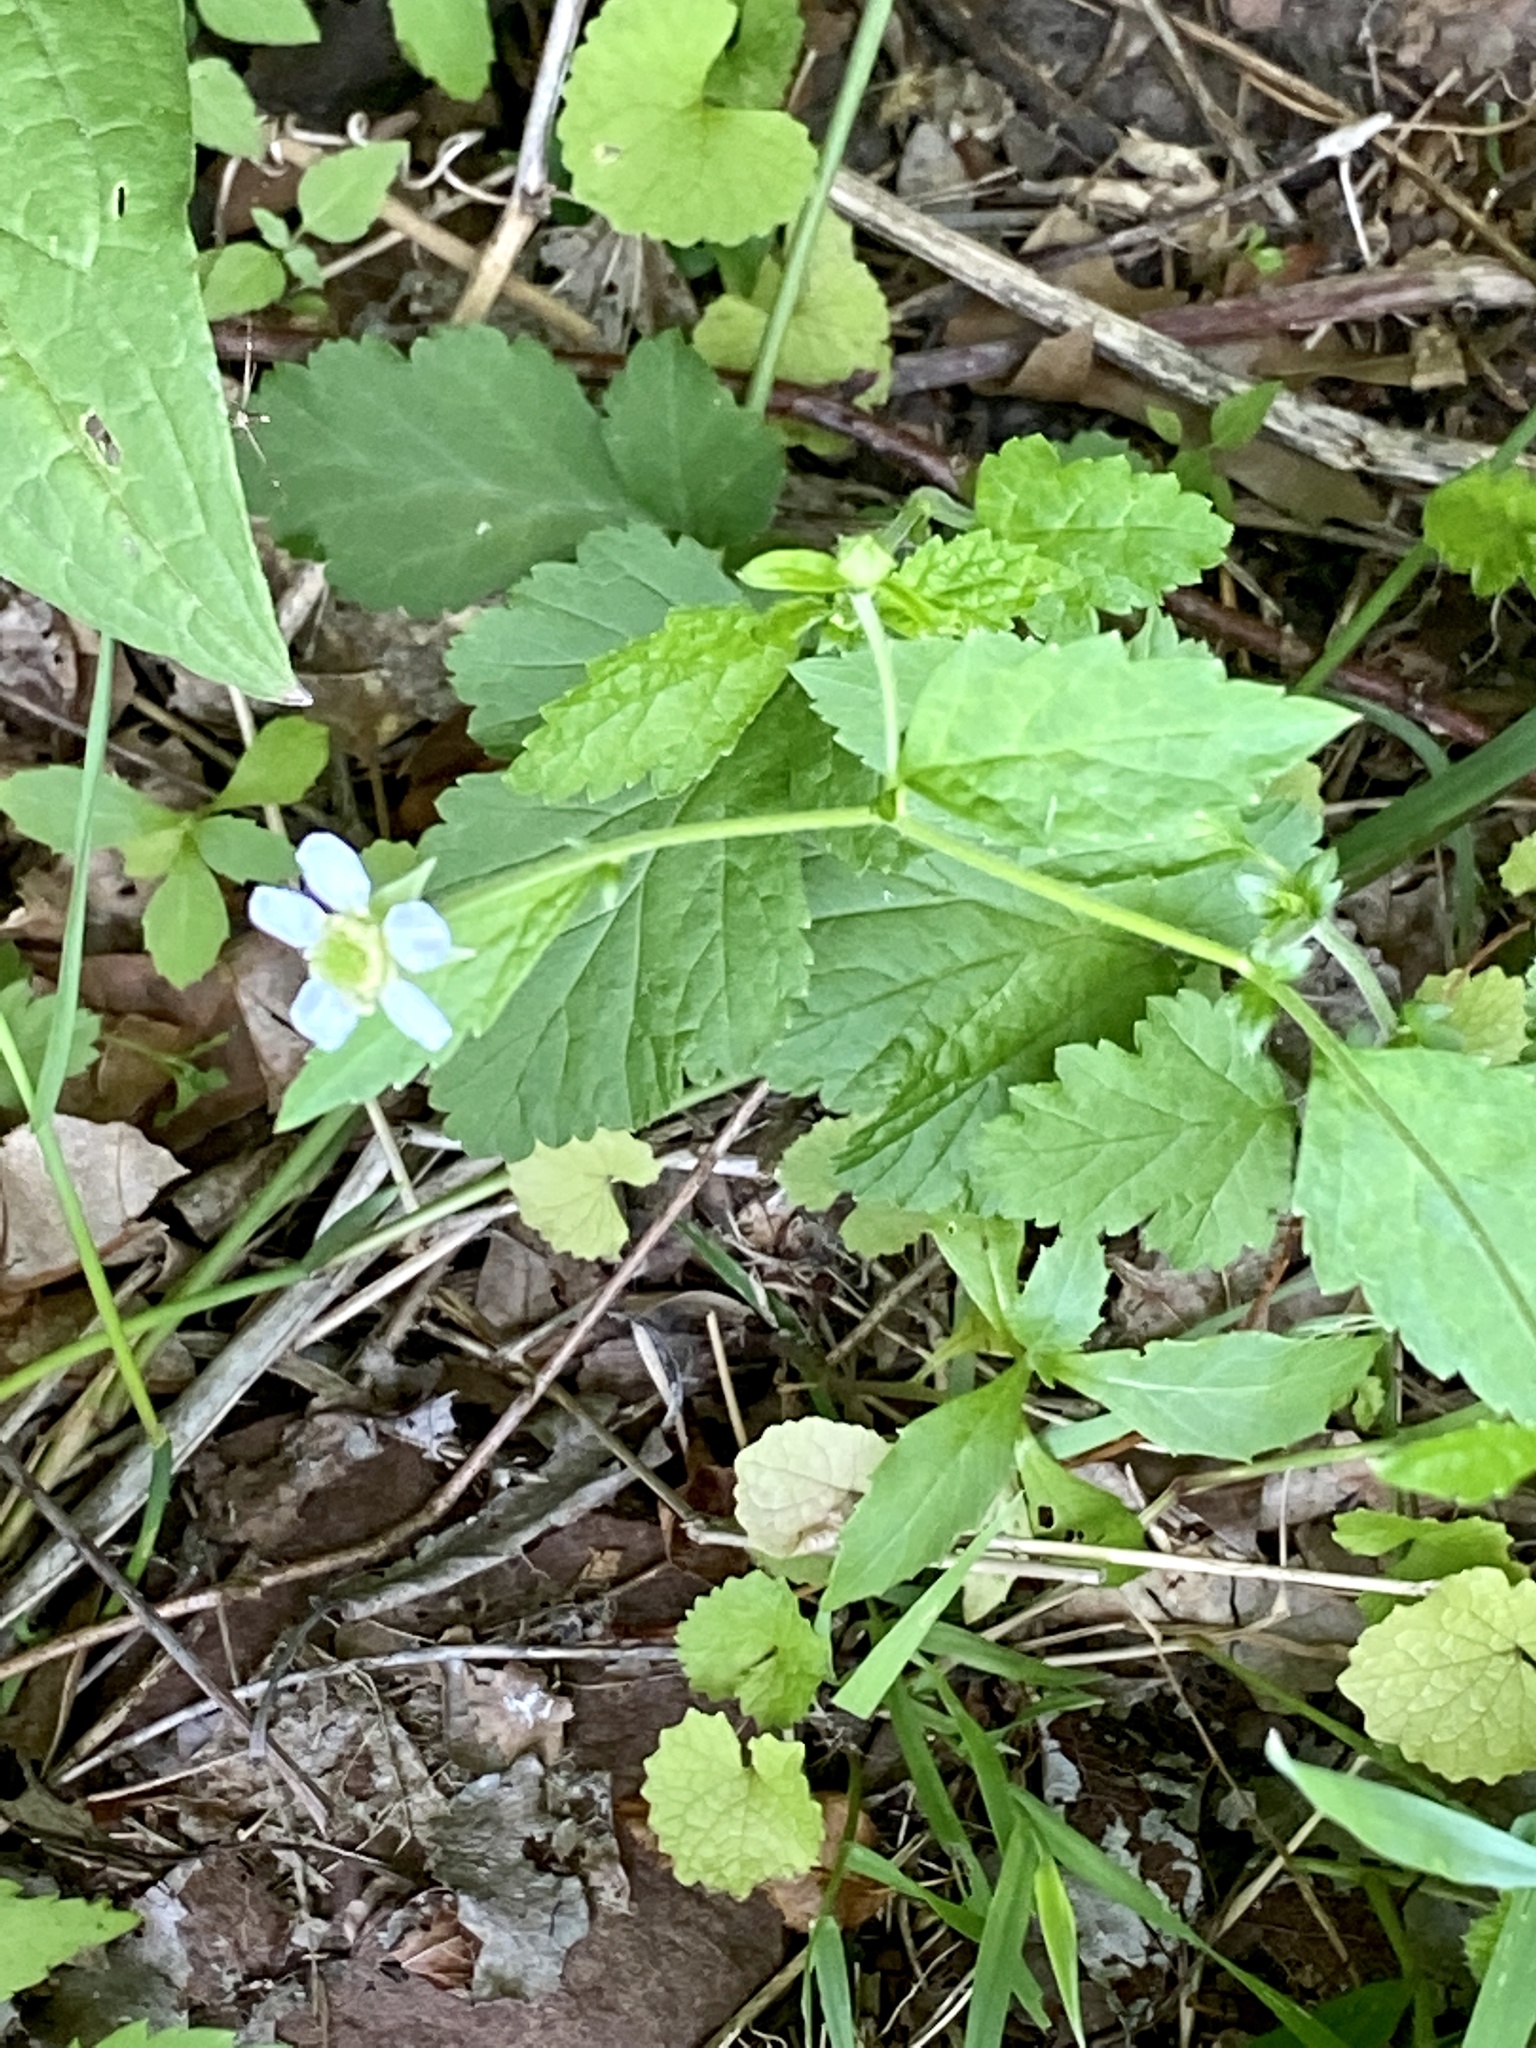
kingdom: Plantae
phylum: Tracheophyta
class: Magnoliopsida
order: Rosales
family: Rosaceae
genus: Geum
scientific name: Geum canadense
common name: White avens
